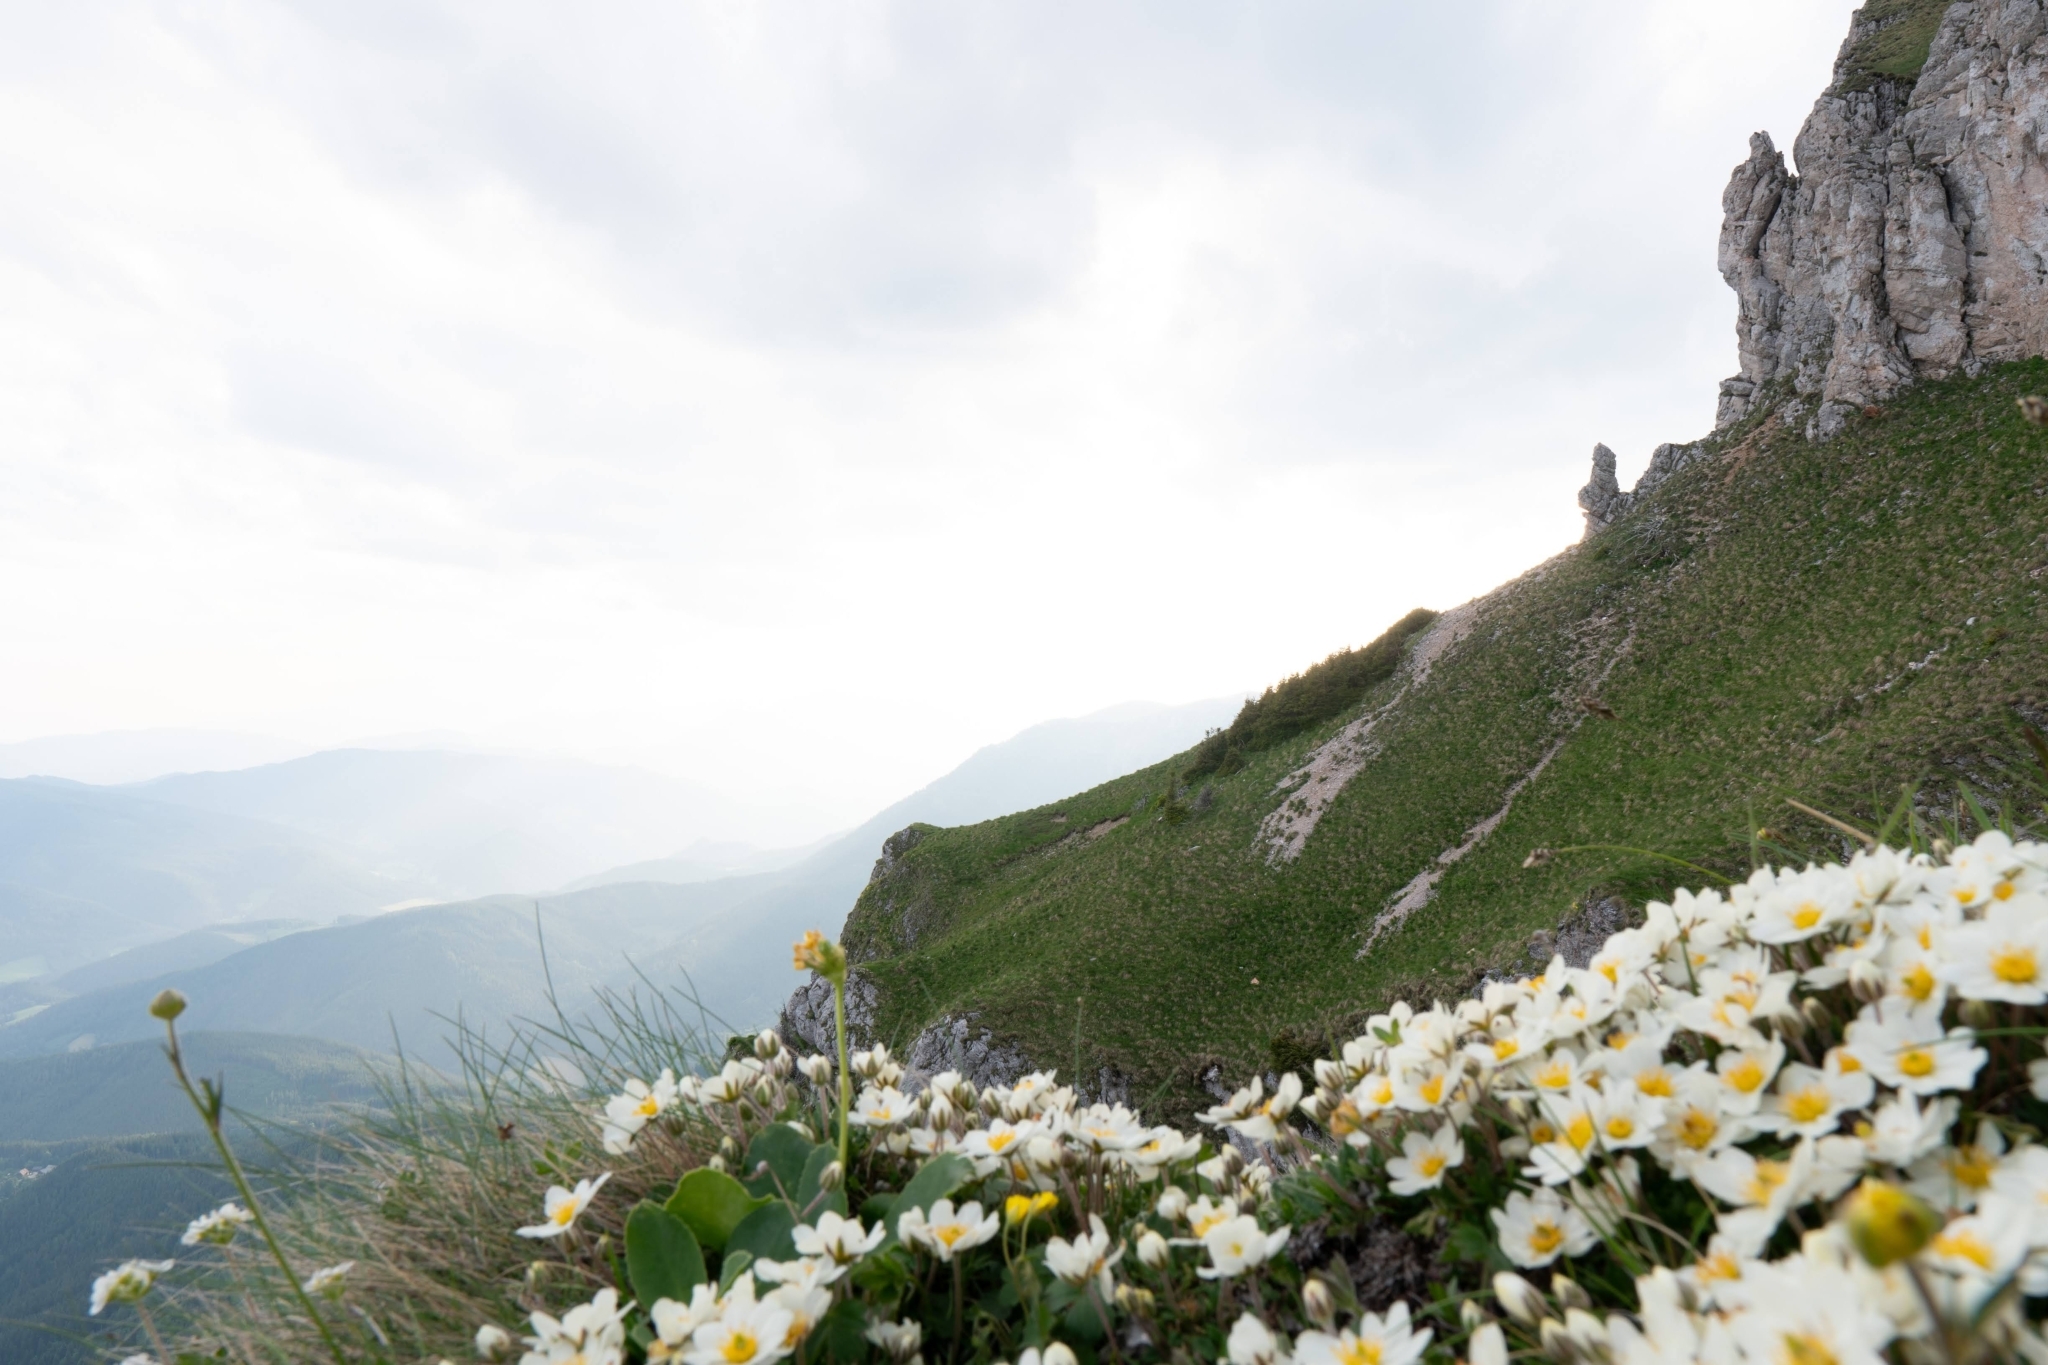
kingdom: Plantae
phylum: Tracheophyta
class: Magnoliopsida
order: Rosales
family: Rosaceae
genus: Dryas
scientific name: Dryas octopetala
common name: Eight-petal mountain-avens
